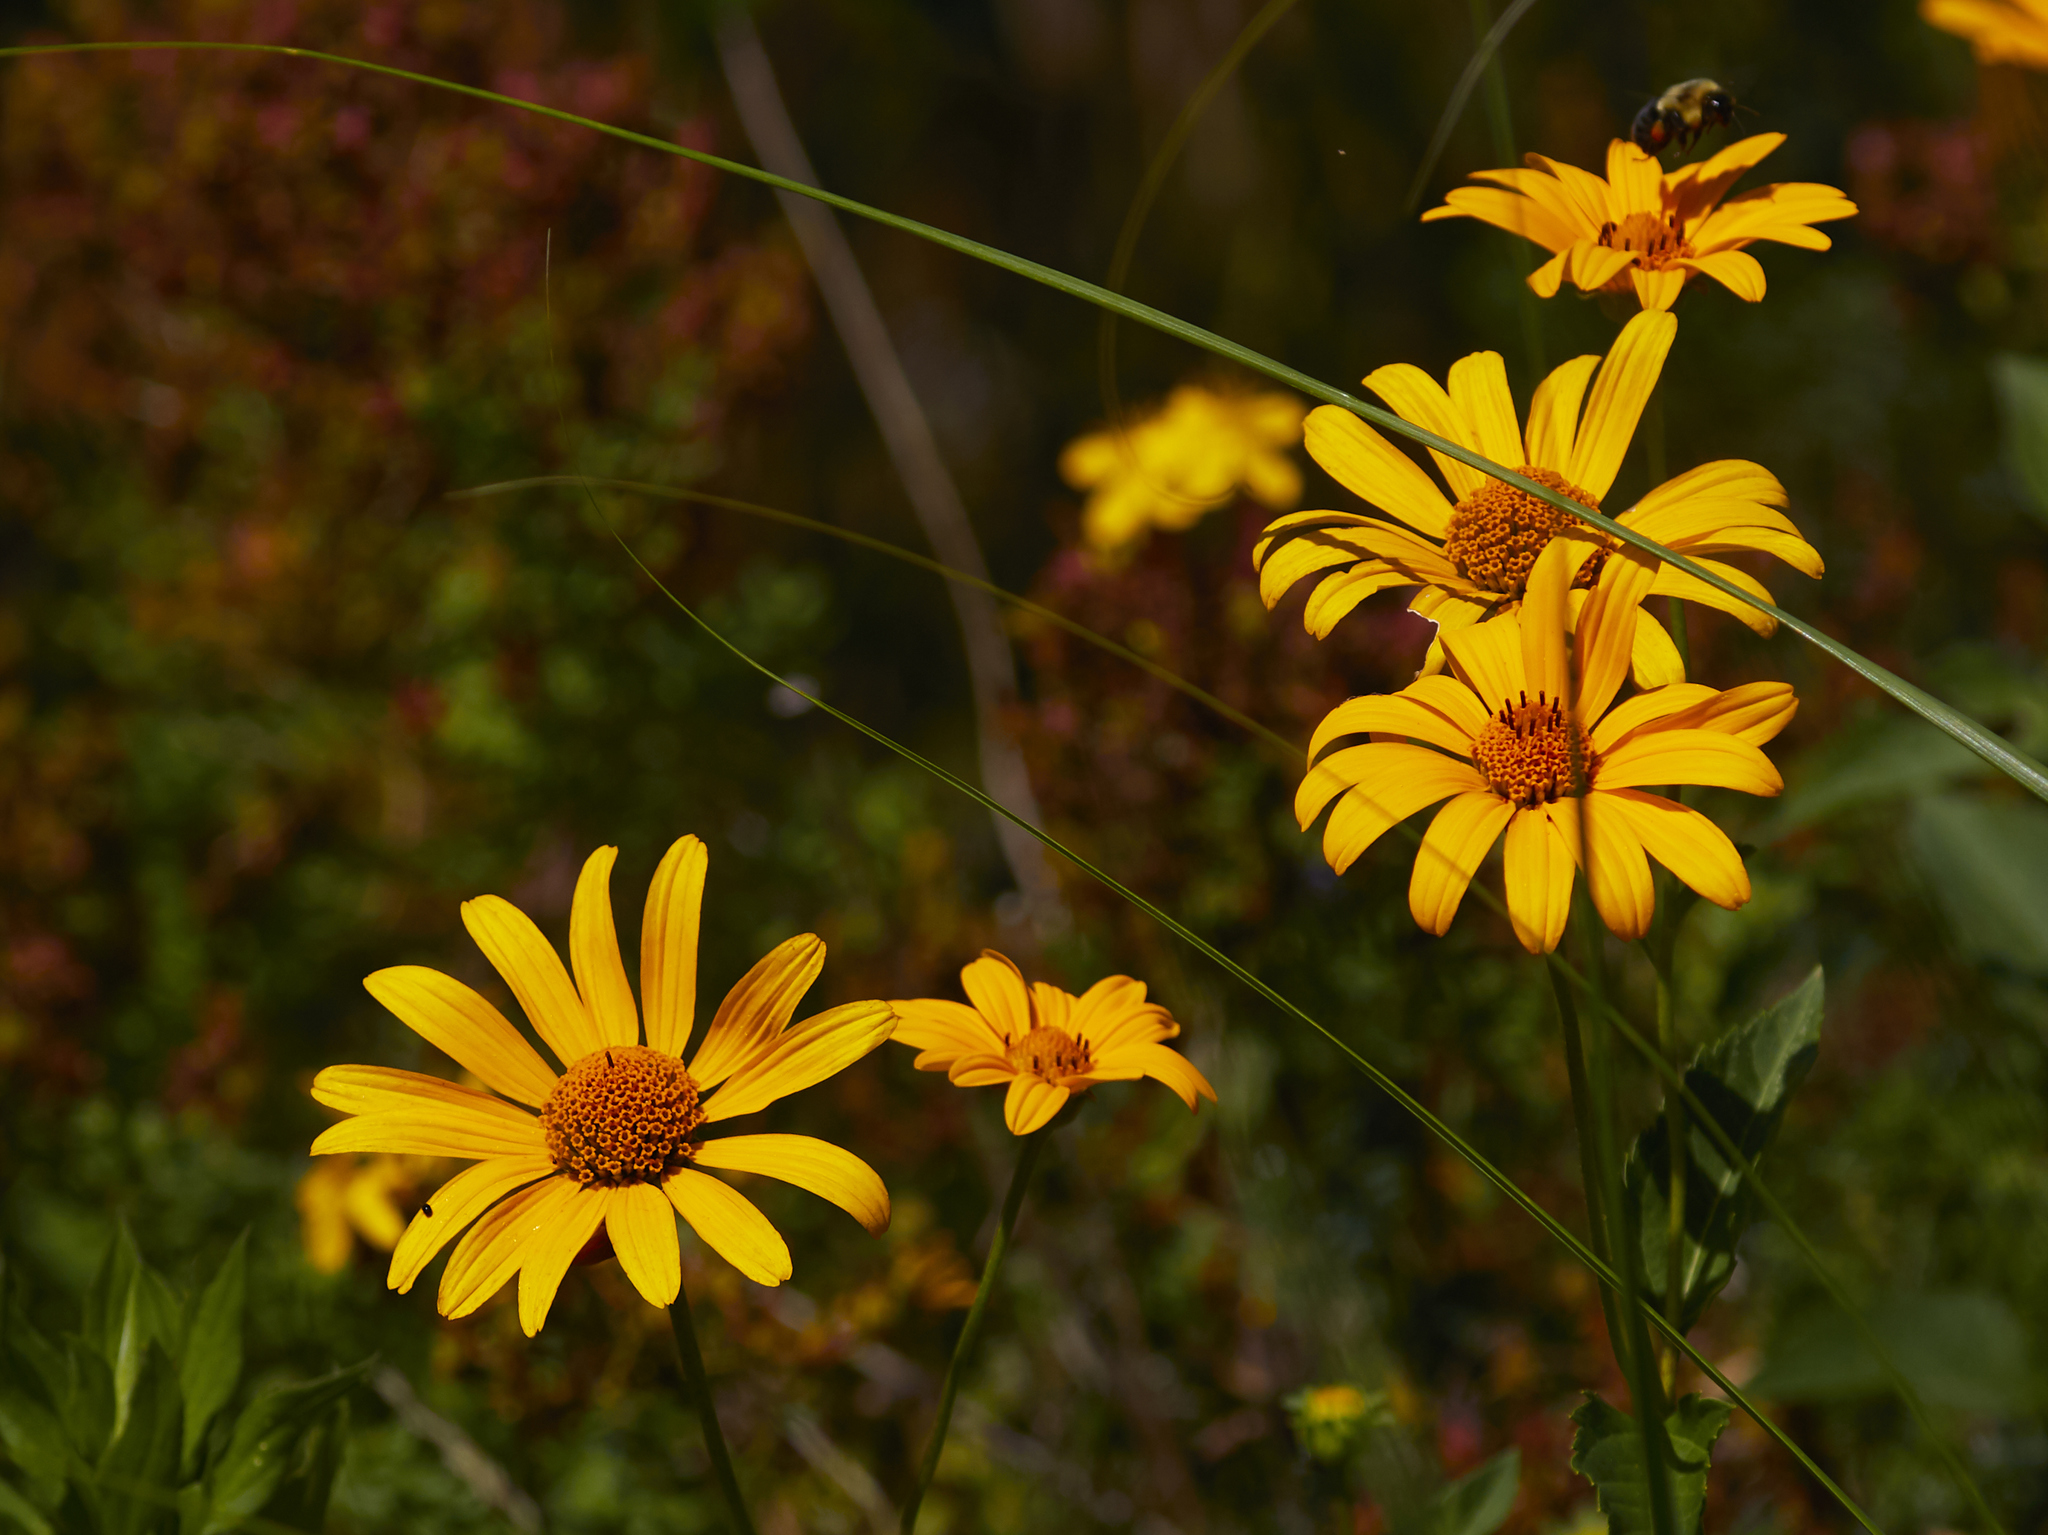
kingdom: Plantae
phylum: Tracheophyta
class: Magnoliopsida
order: Asterales
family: Asteraceae
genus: Heliopsis
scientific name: Heliopsis helianthoides
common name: False sunflower
